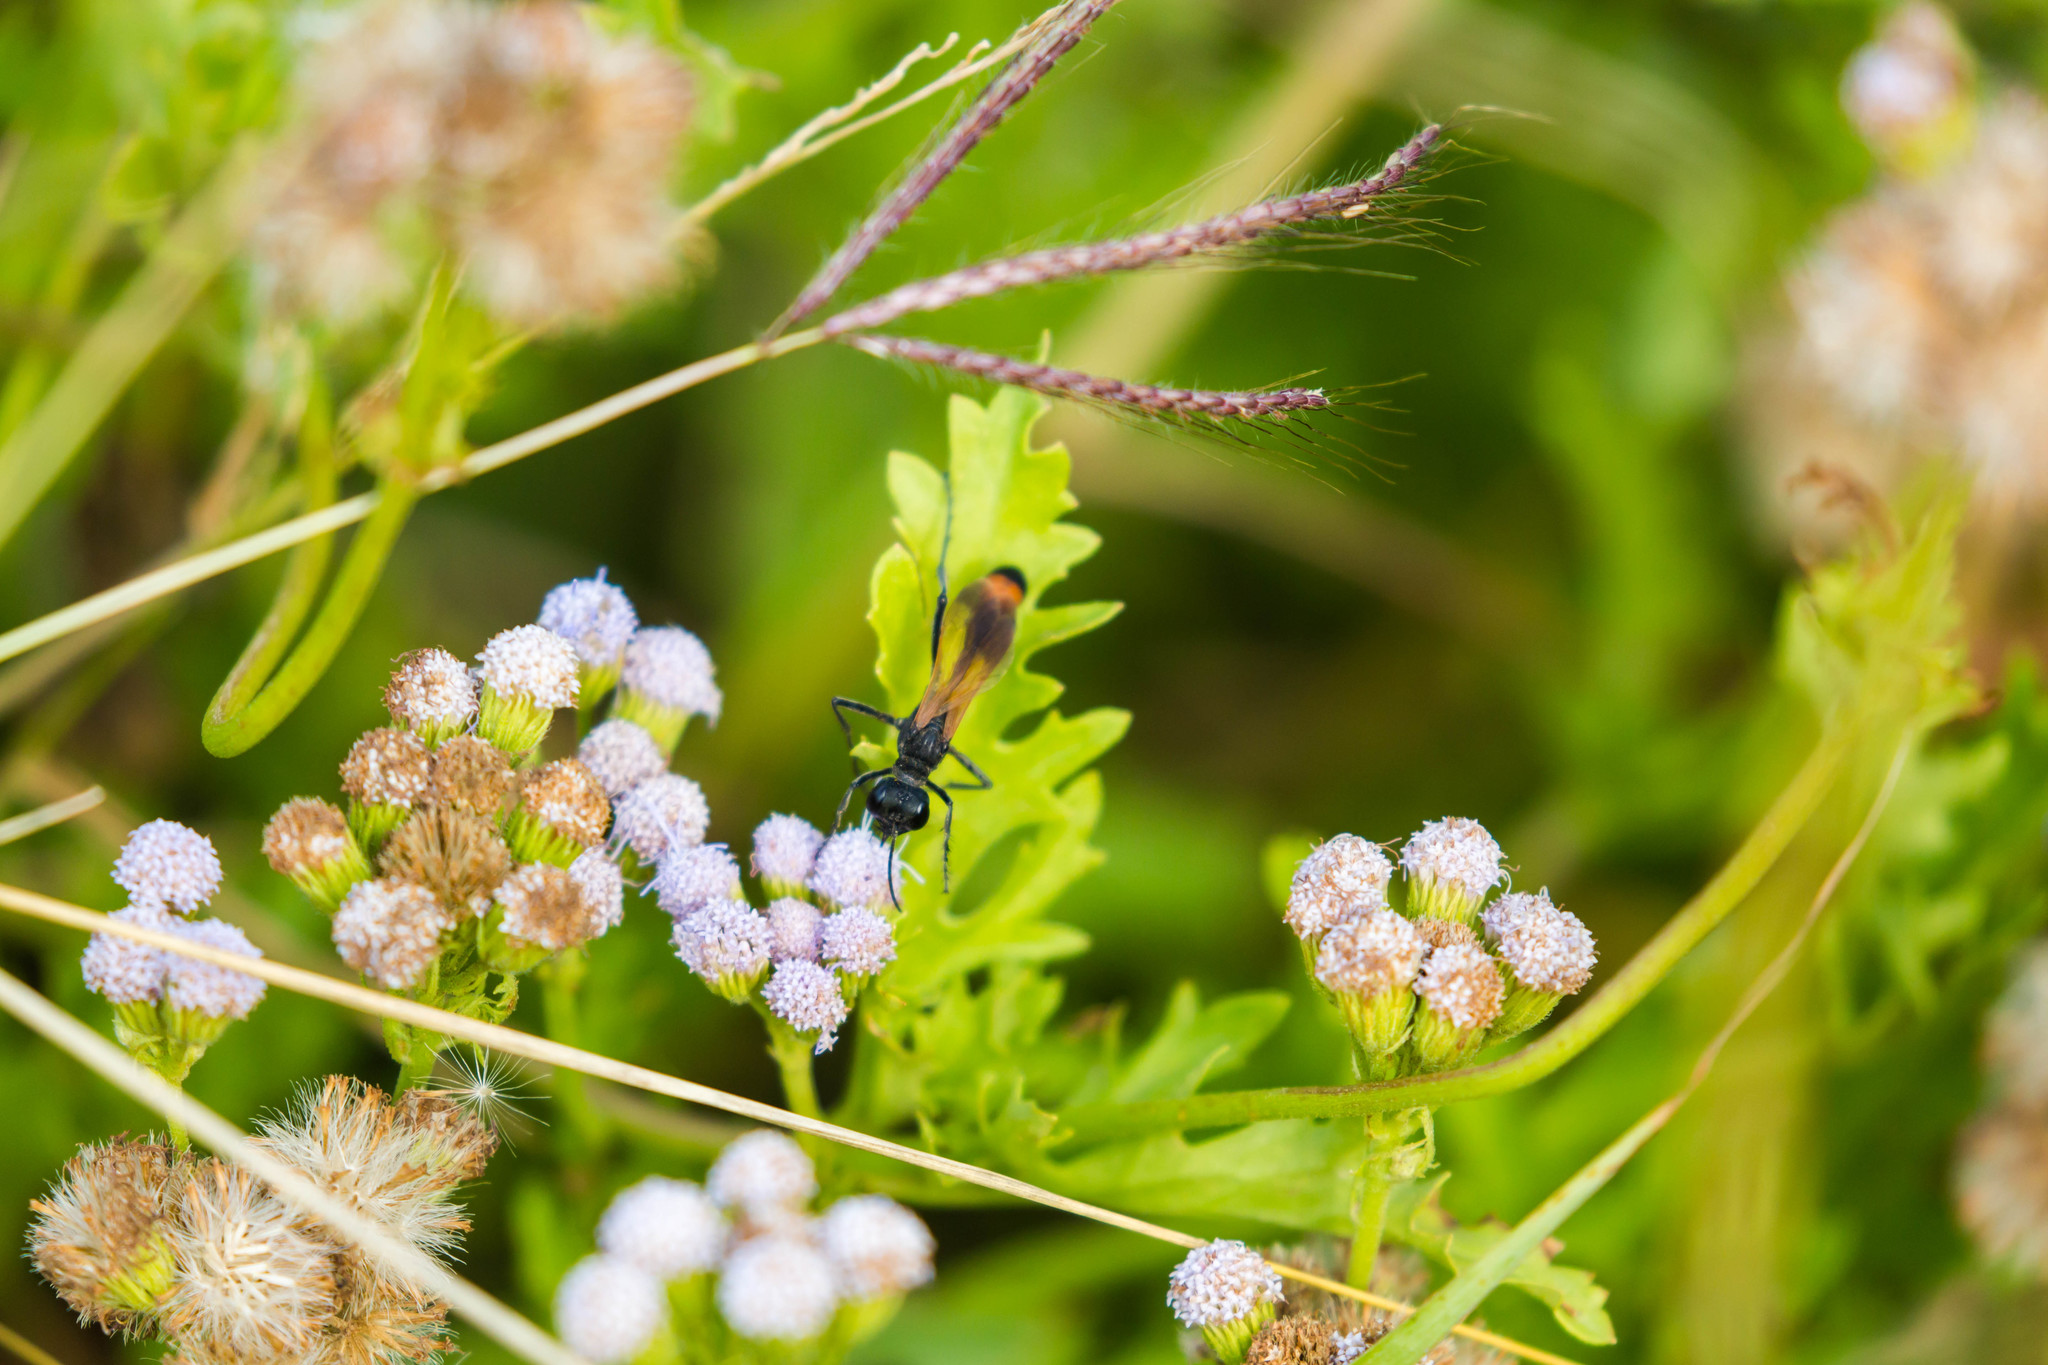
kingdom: Animalia
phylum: Arthropoda
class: Insecta
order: Hymenoptera
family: Sphecidae
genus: Ammophila
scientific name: Ammophila pictipennis
